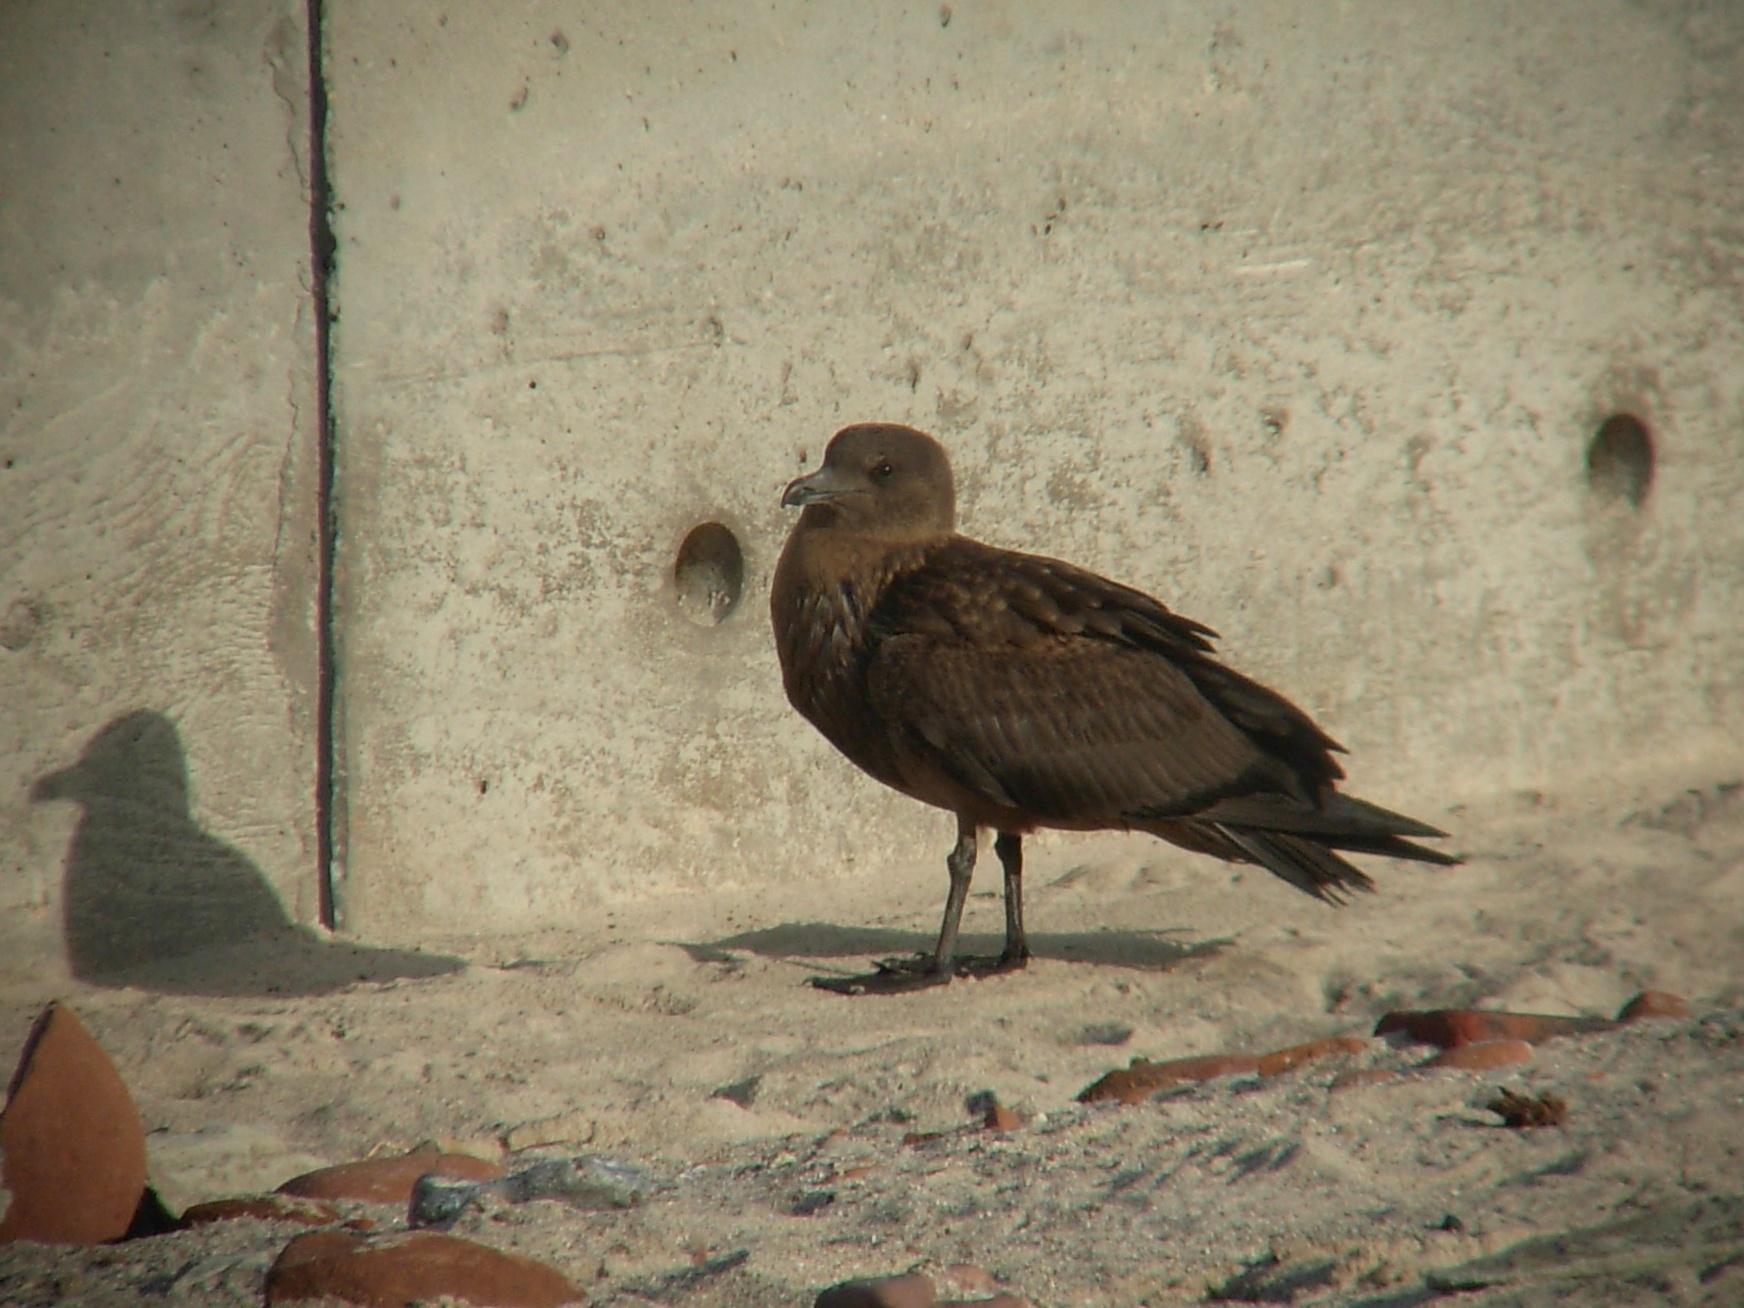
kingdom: Animalia
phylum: Chordata
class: Aves
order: Charadriiformes
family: Stercorariidae
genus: Stercorarius
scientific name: Stercorarius skua
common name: Great skua
